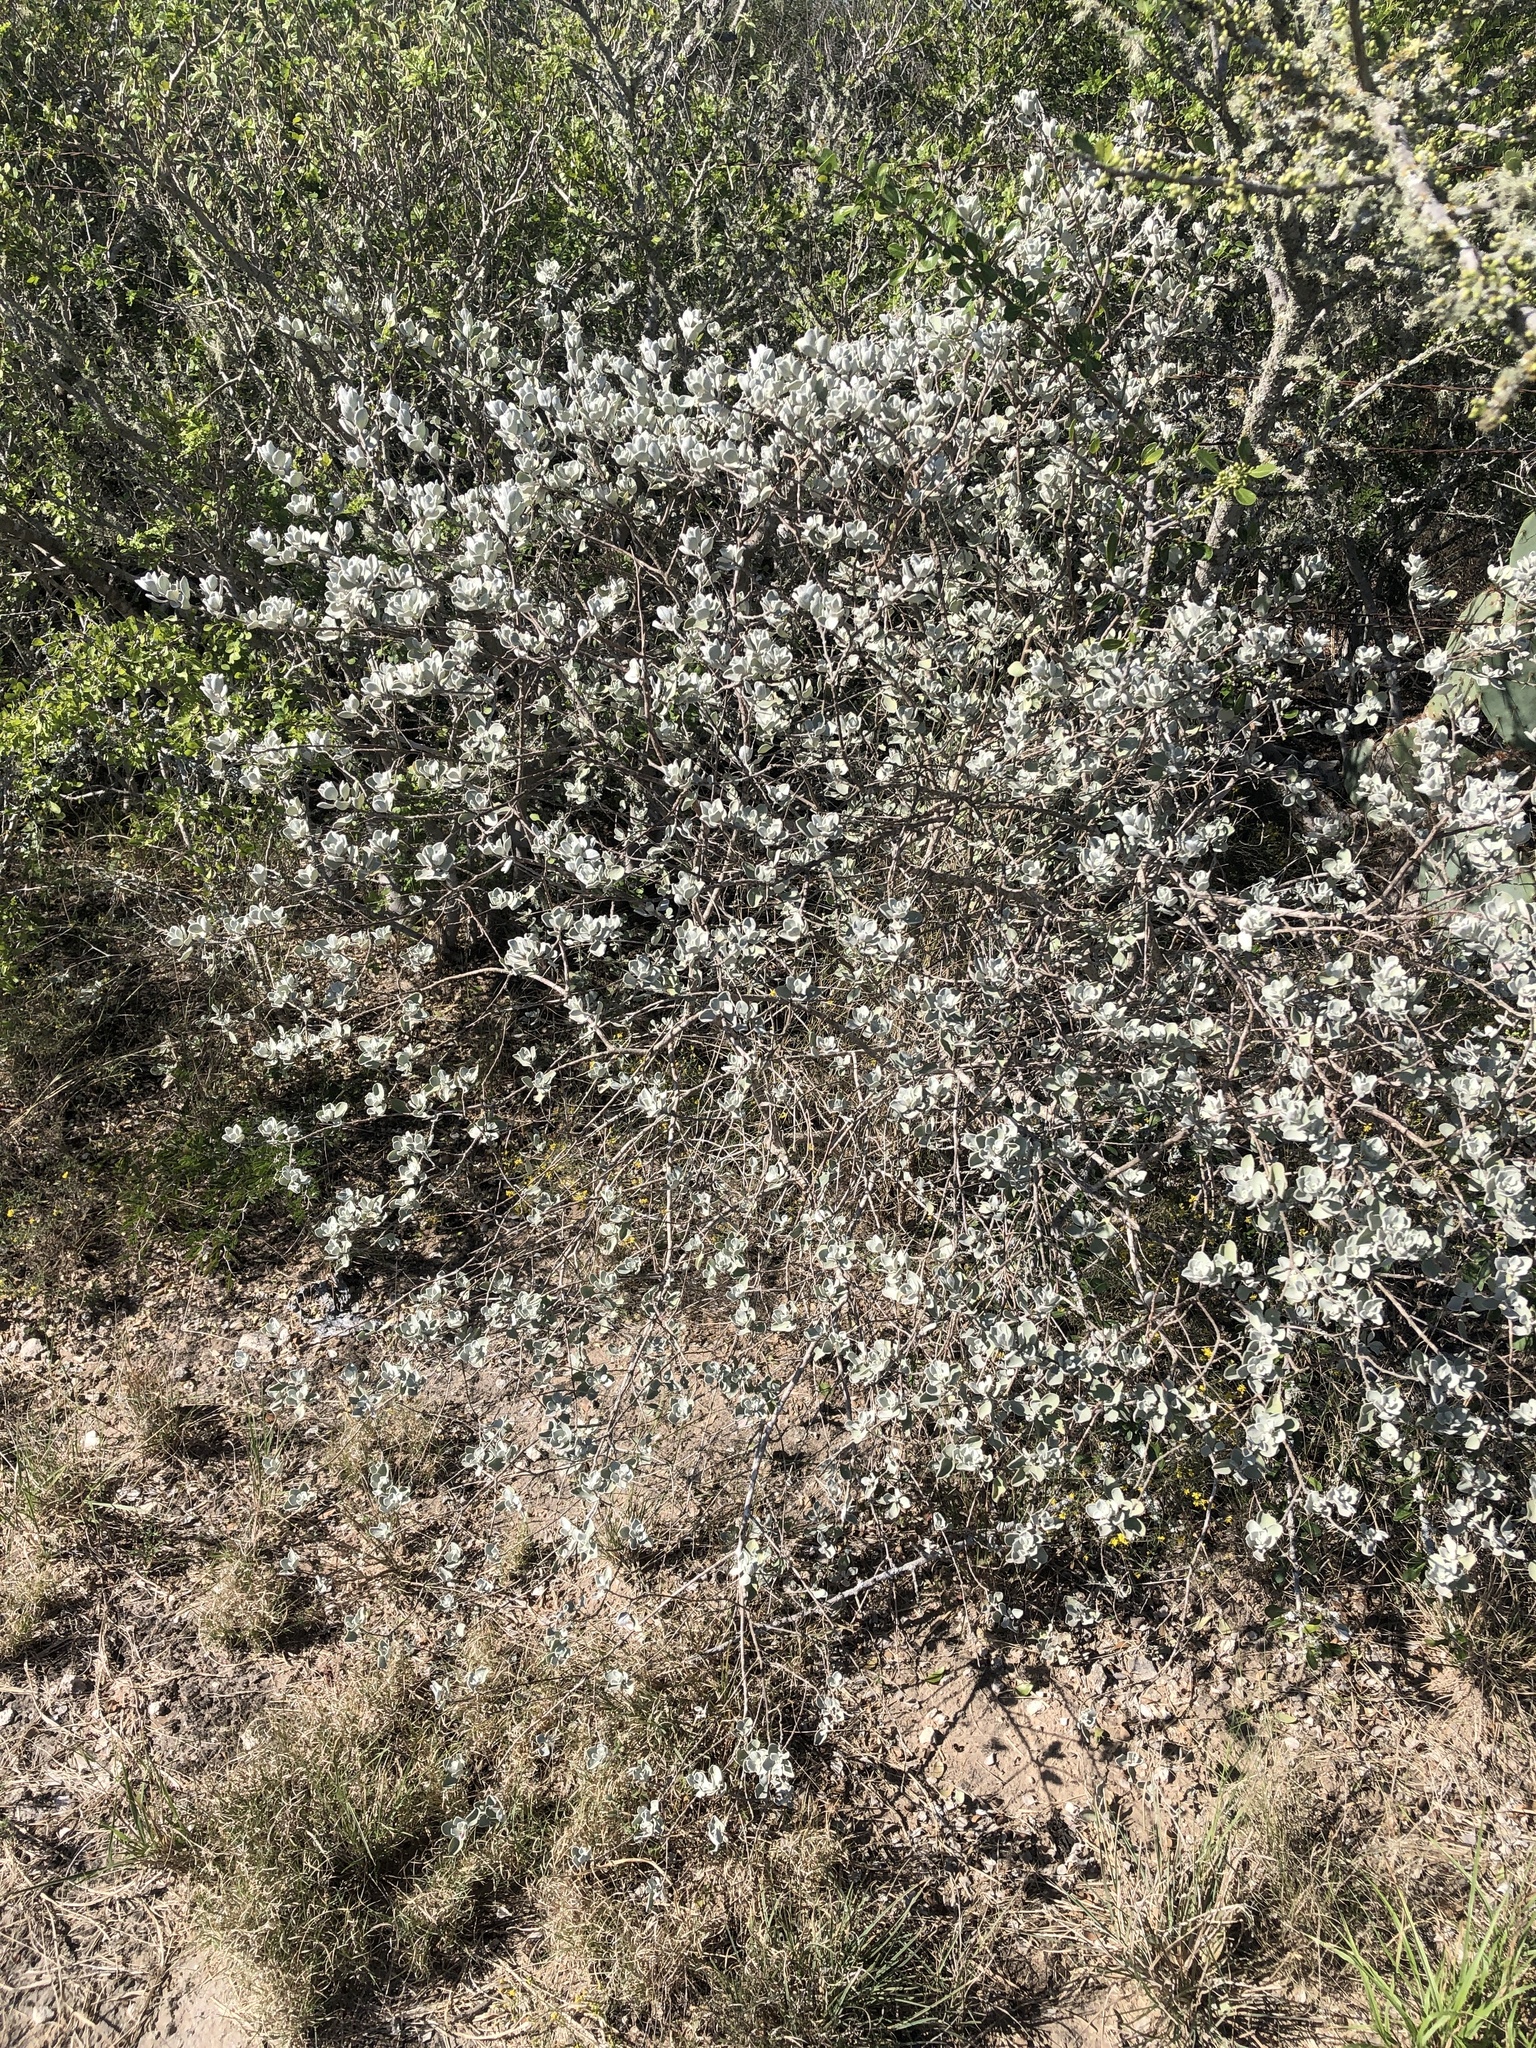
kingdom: Plantae
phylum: Tracheophyta
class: Magnoliopsida
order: Lamiales
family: Scrophulariaceae
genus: Leucophyllum
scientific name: Leucophyllum frutescens
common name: Texas silverleaf
